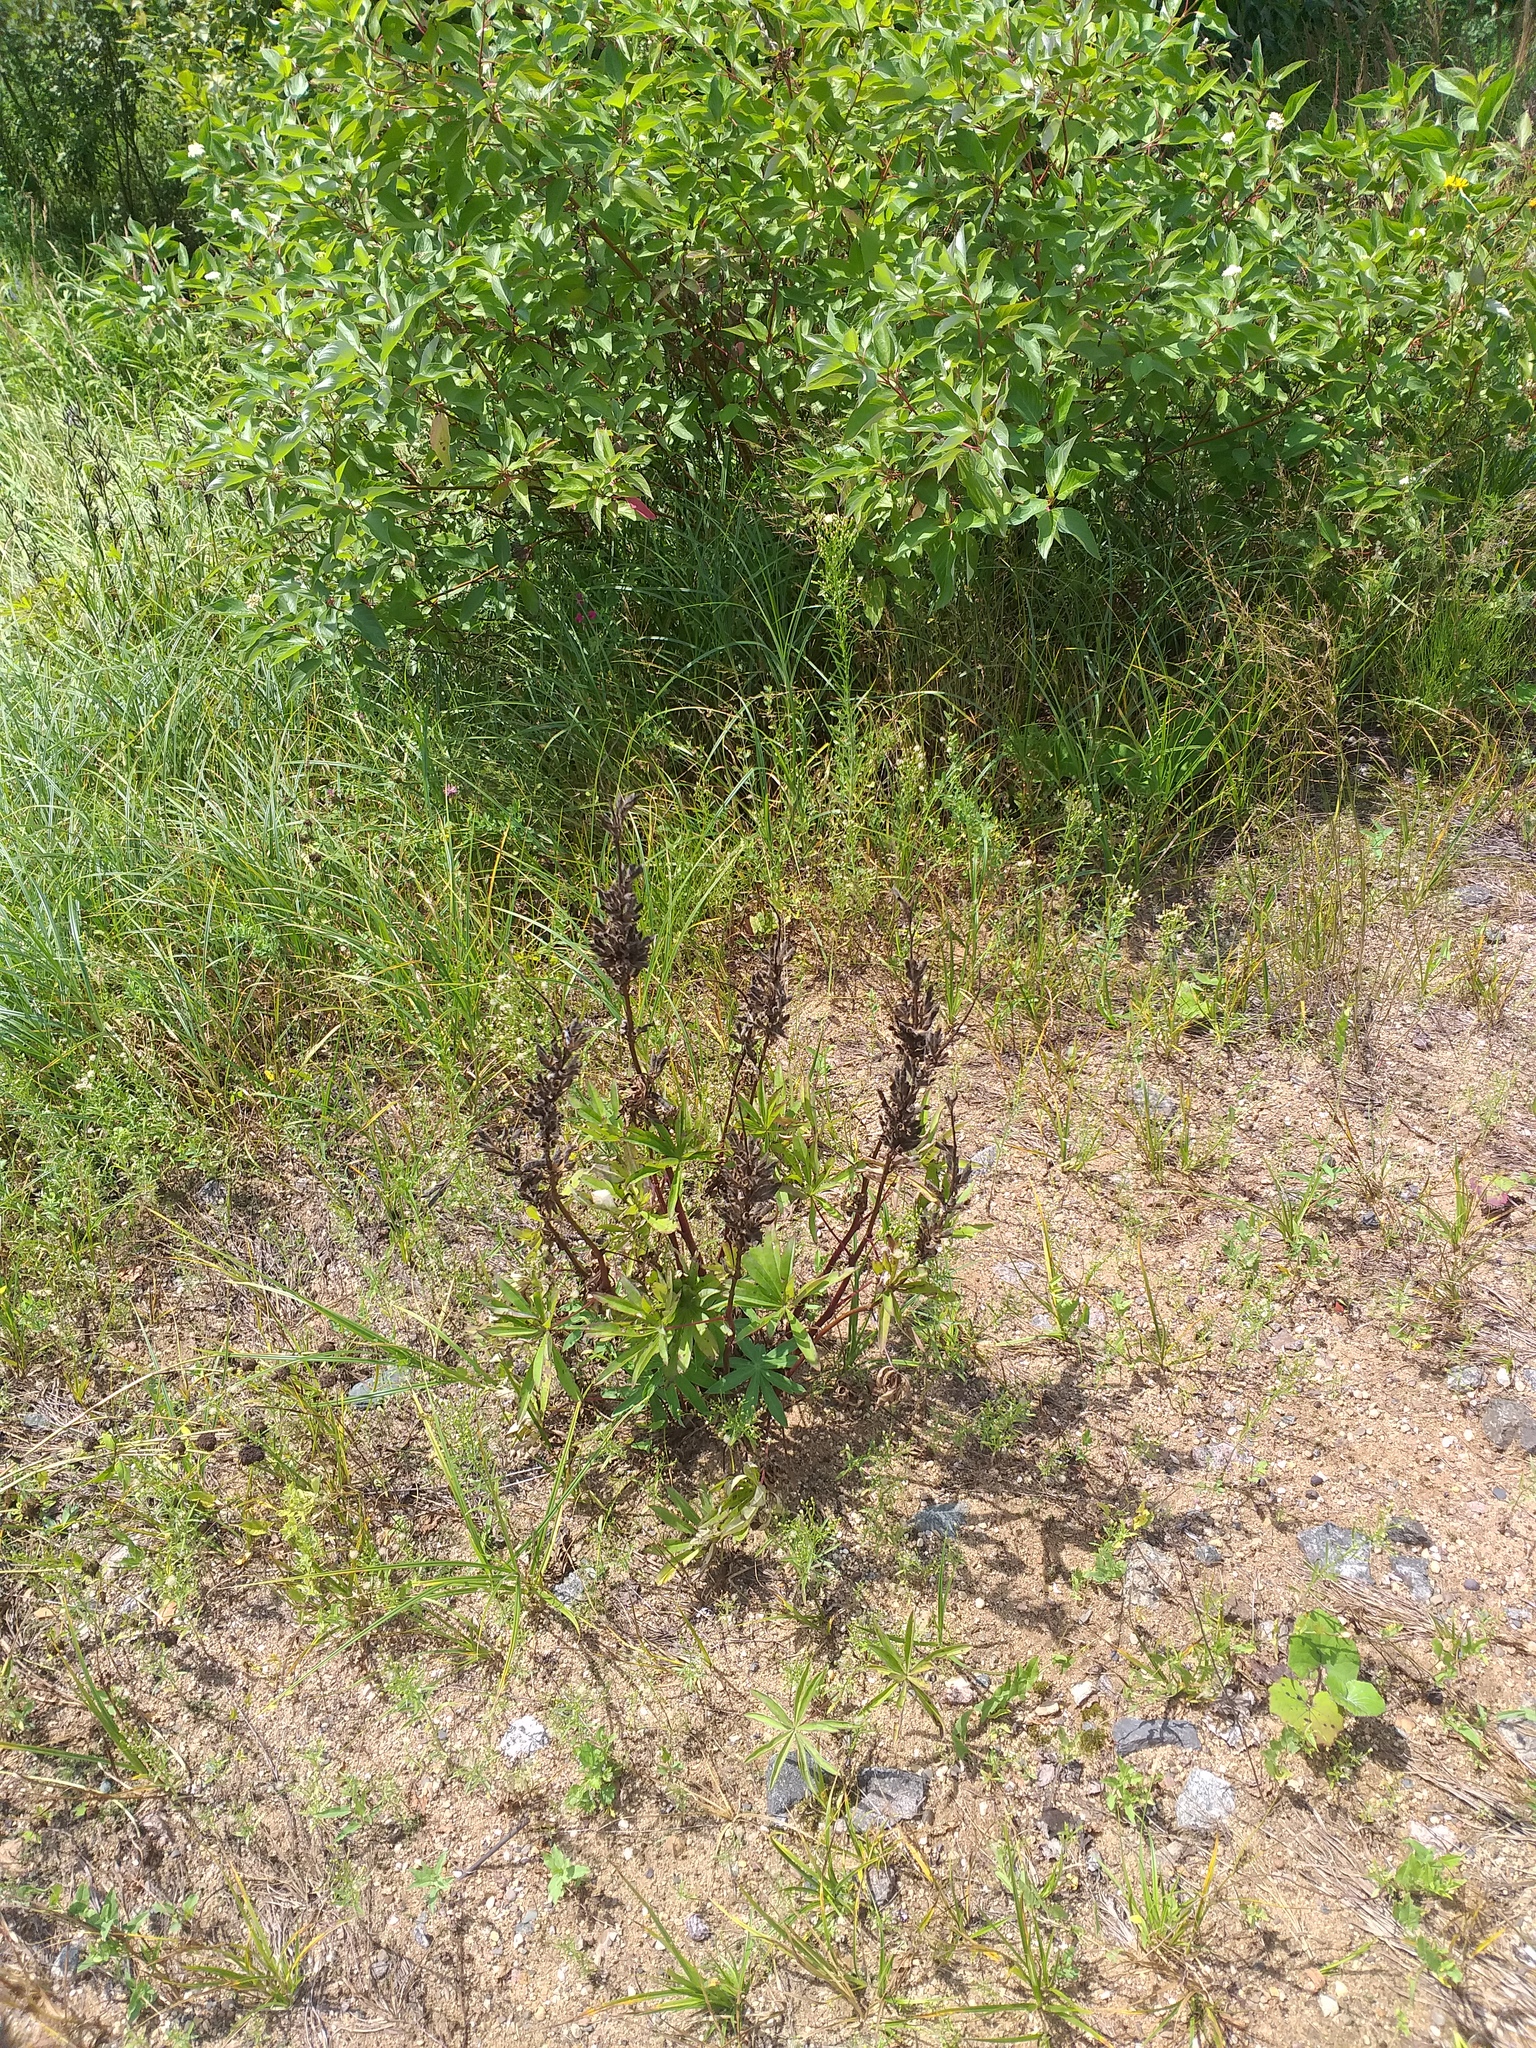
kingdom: Plantae
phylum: Tracheophyta
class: Magnoliopsida
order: Fabales
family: Fabaceae
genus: Lupinus
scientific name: Lupinus polyphyllus
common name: Garden lupin
